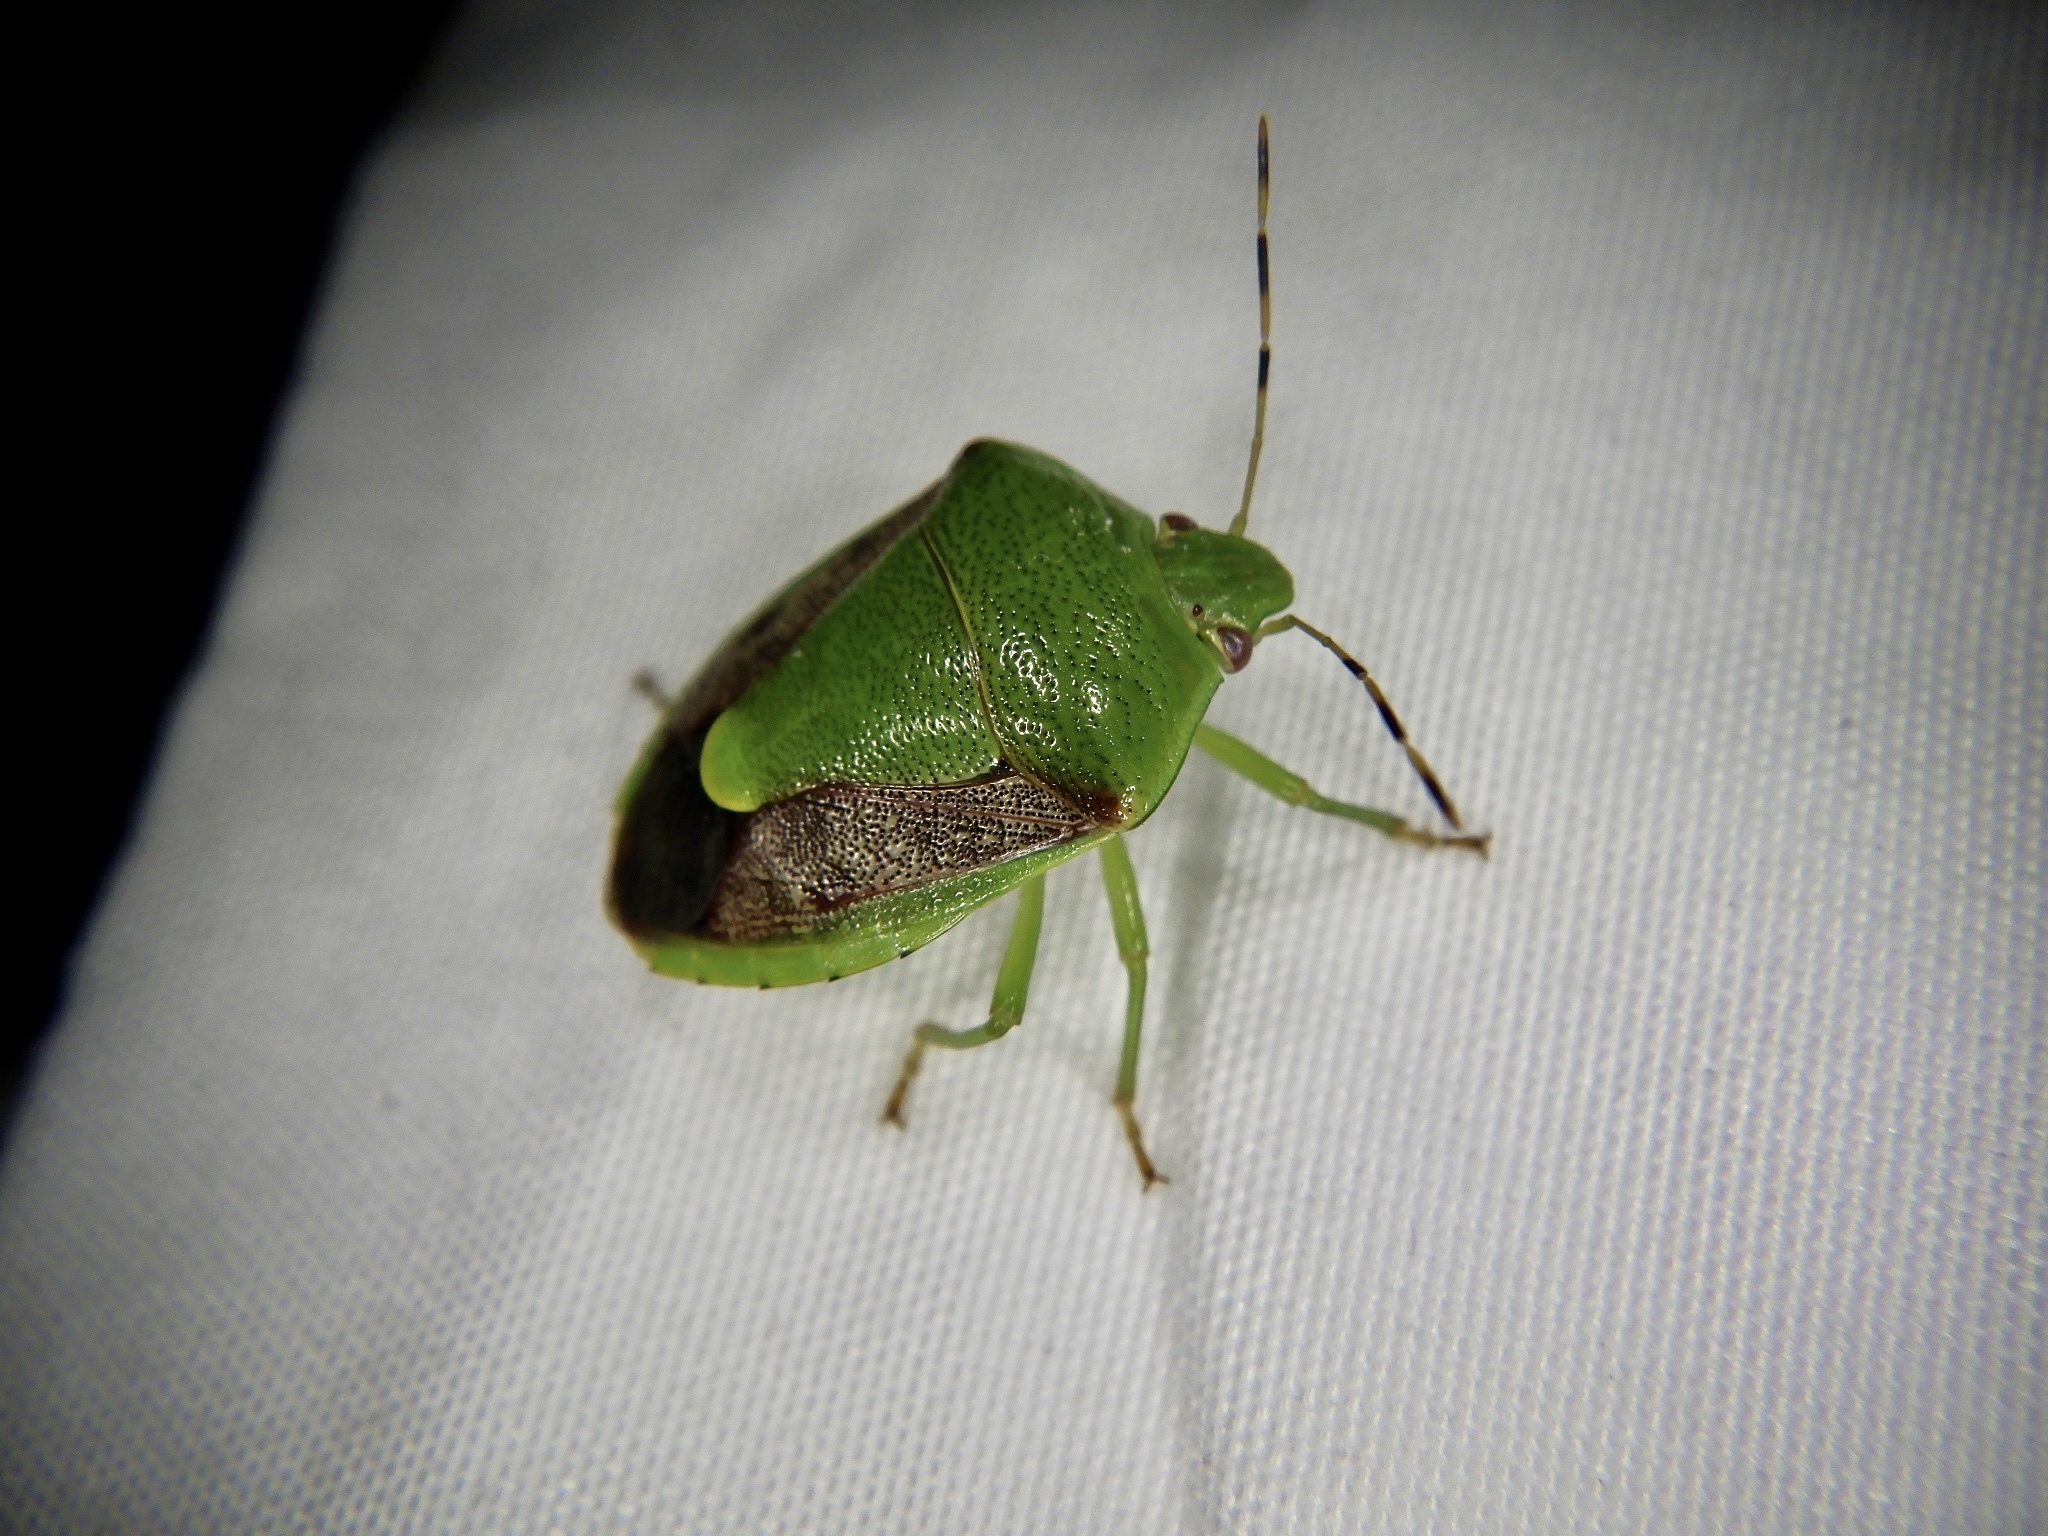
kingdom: Animalia
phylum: Arthropoda
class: Insecta
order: Hemiptera
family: Pentatomidae
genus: Plautia
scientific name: Plautia stali
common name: Stink bug
